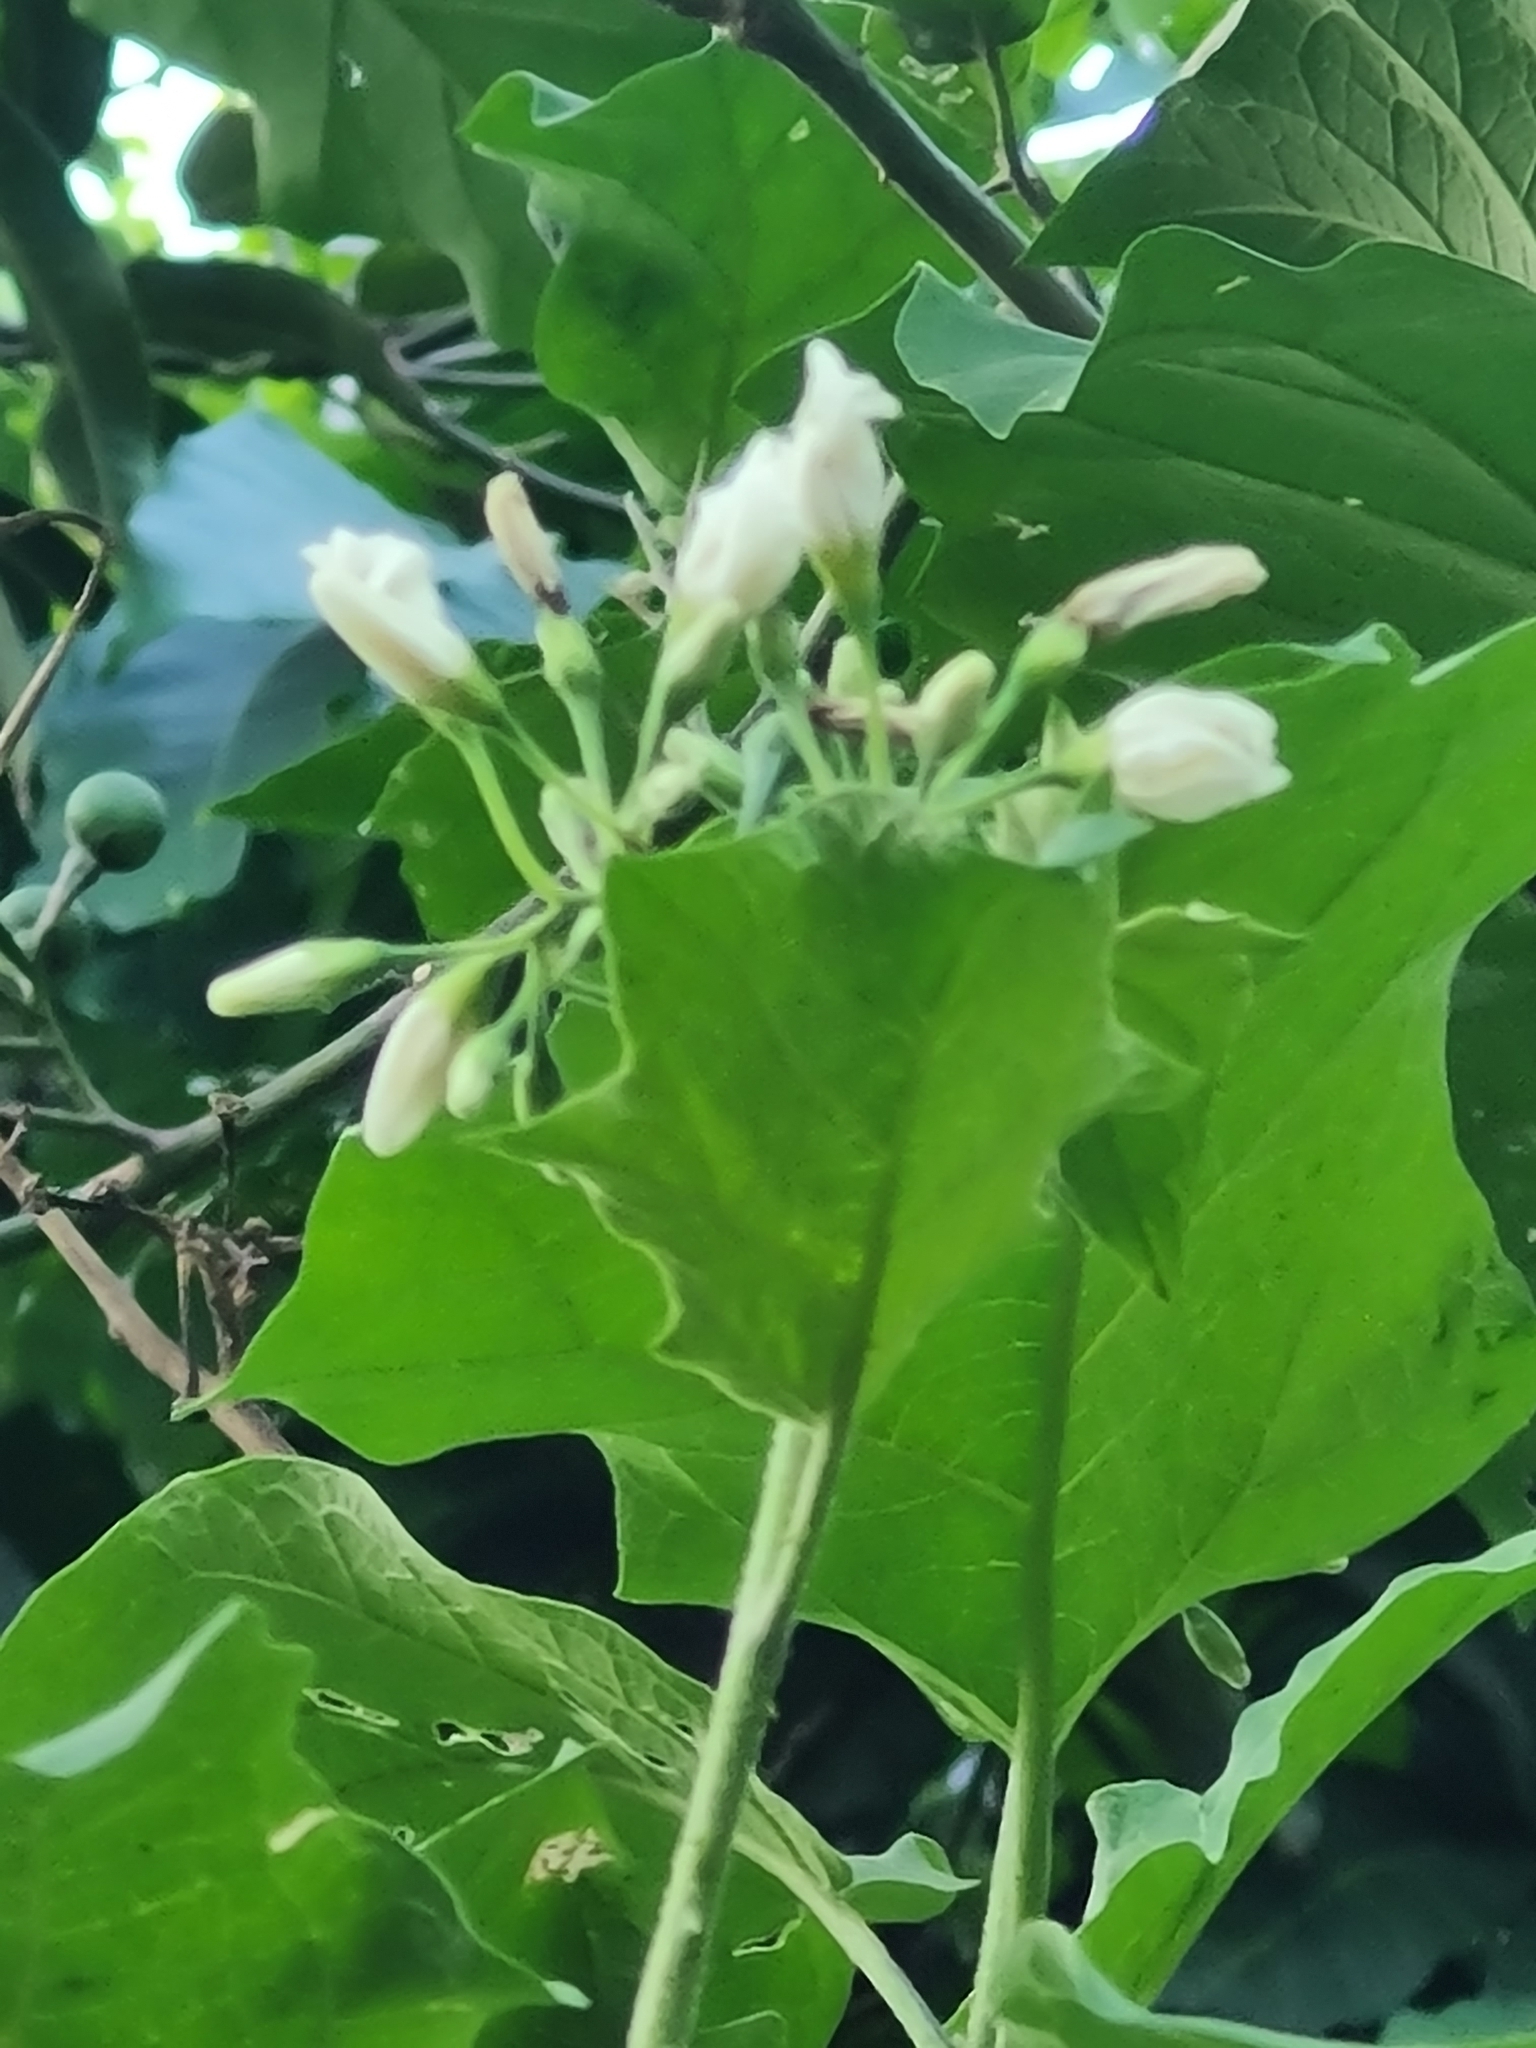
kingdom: Plantae
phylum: Tracheophyta
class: Magnoliopsida
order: Solanales
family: Solanaceae
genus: Solanum
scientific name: Solanum torvum
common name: Turkey berry
